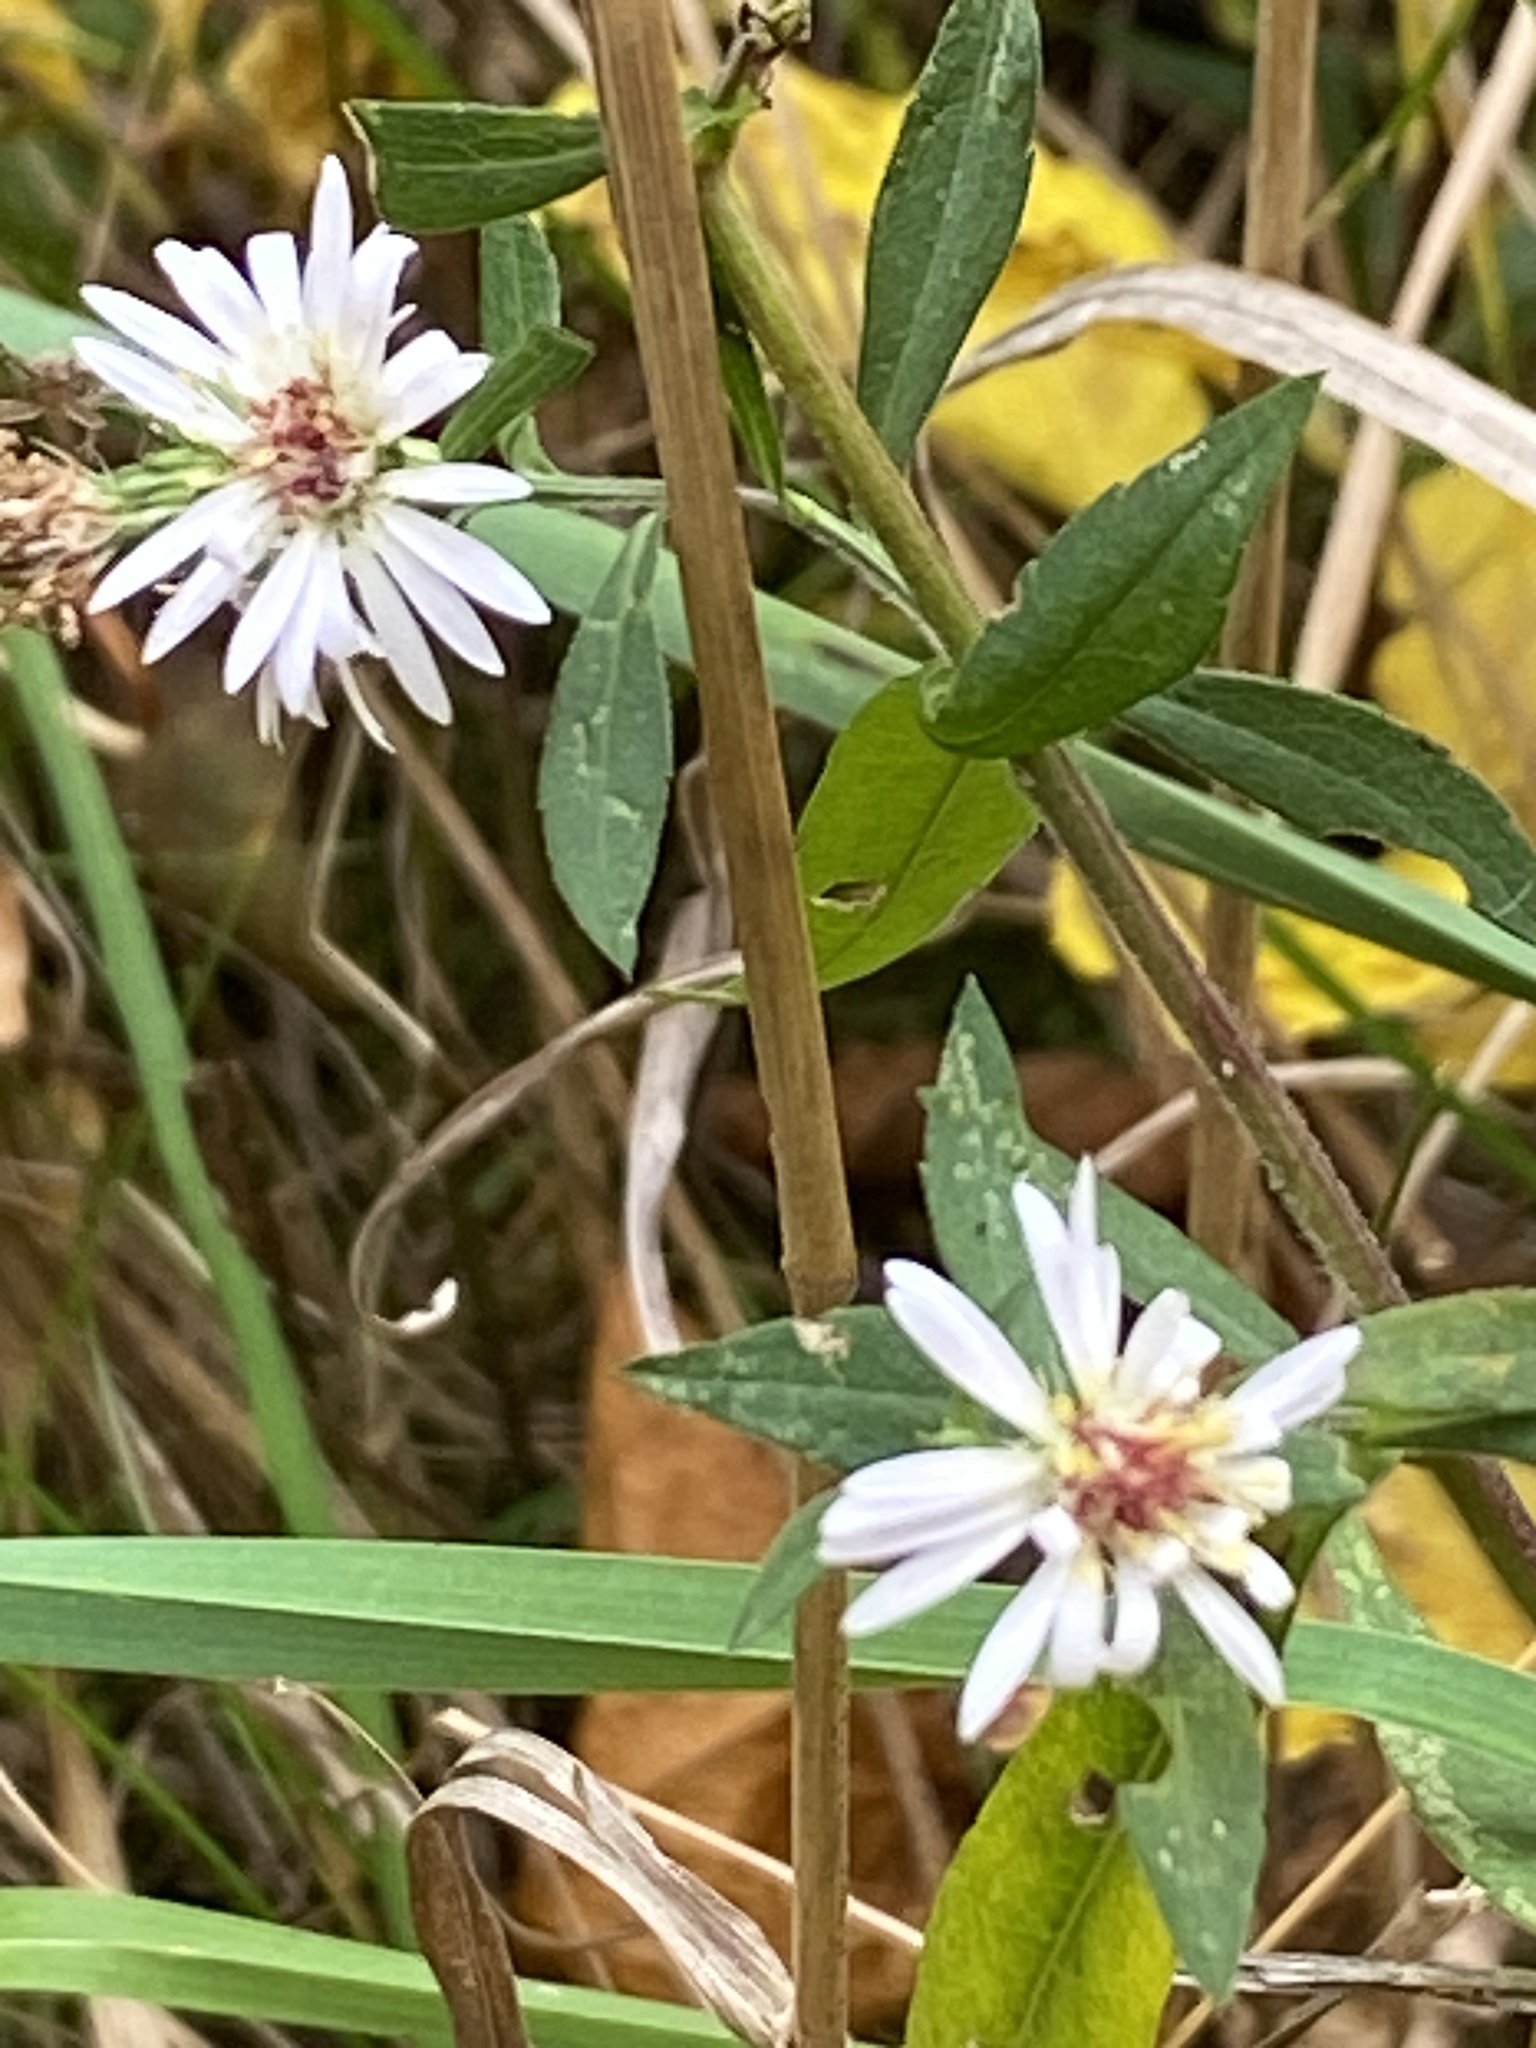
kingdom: Plantae
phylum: Tracheophyta
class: Magnoliopsida
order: Asterales
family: Asteraceae
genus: Symphyotrichum
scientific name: Symphyotrichum lanceolatum
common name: Panicled aster
